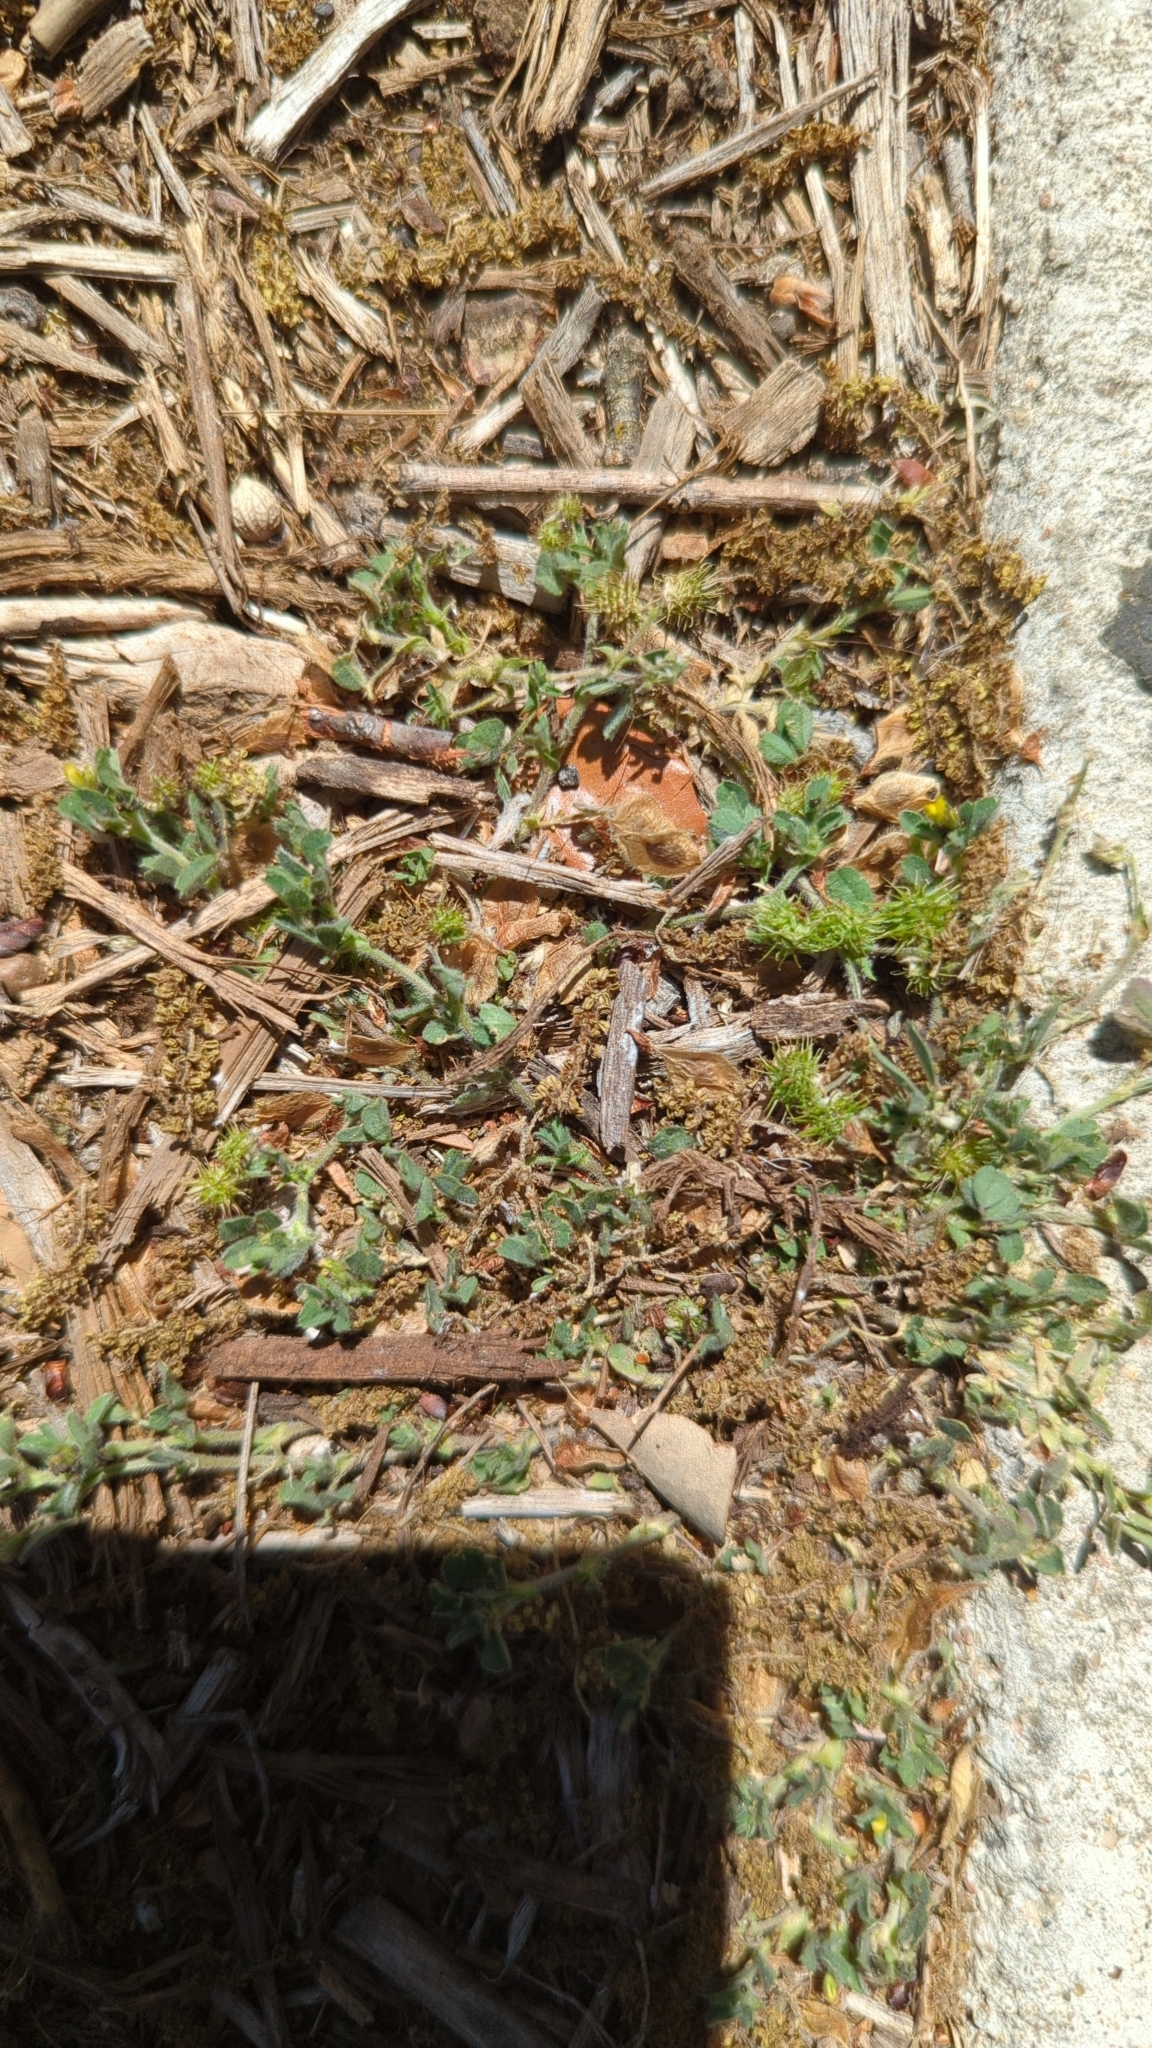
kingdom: Plantae
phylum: Tracheophyta
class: Magnoliopsida
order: Fabales
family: Fabaceae
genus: Medicago
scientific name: Medicago minima
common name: Little bur-clover
